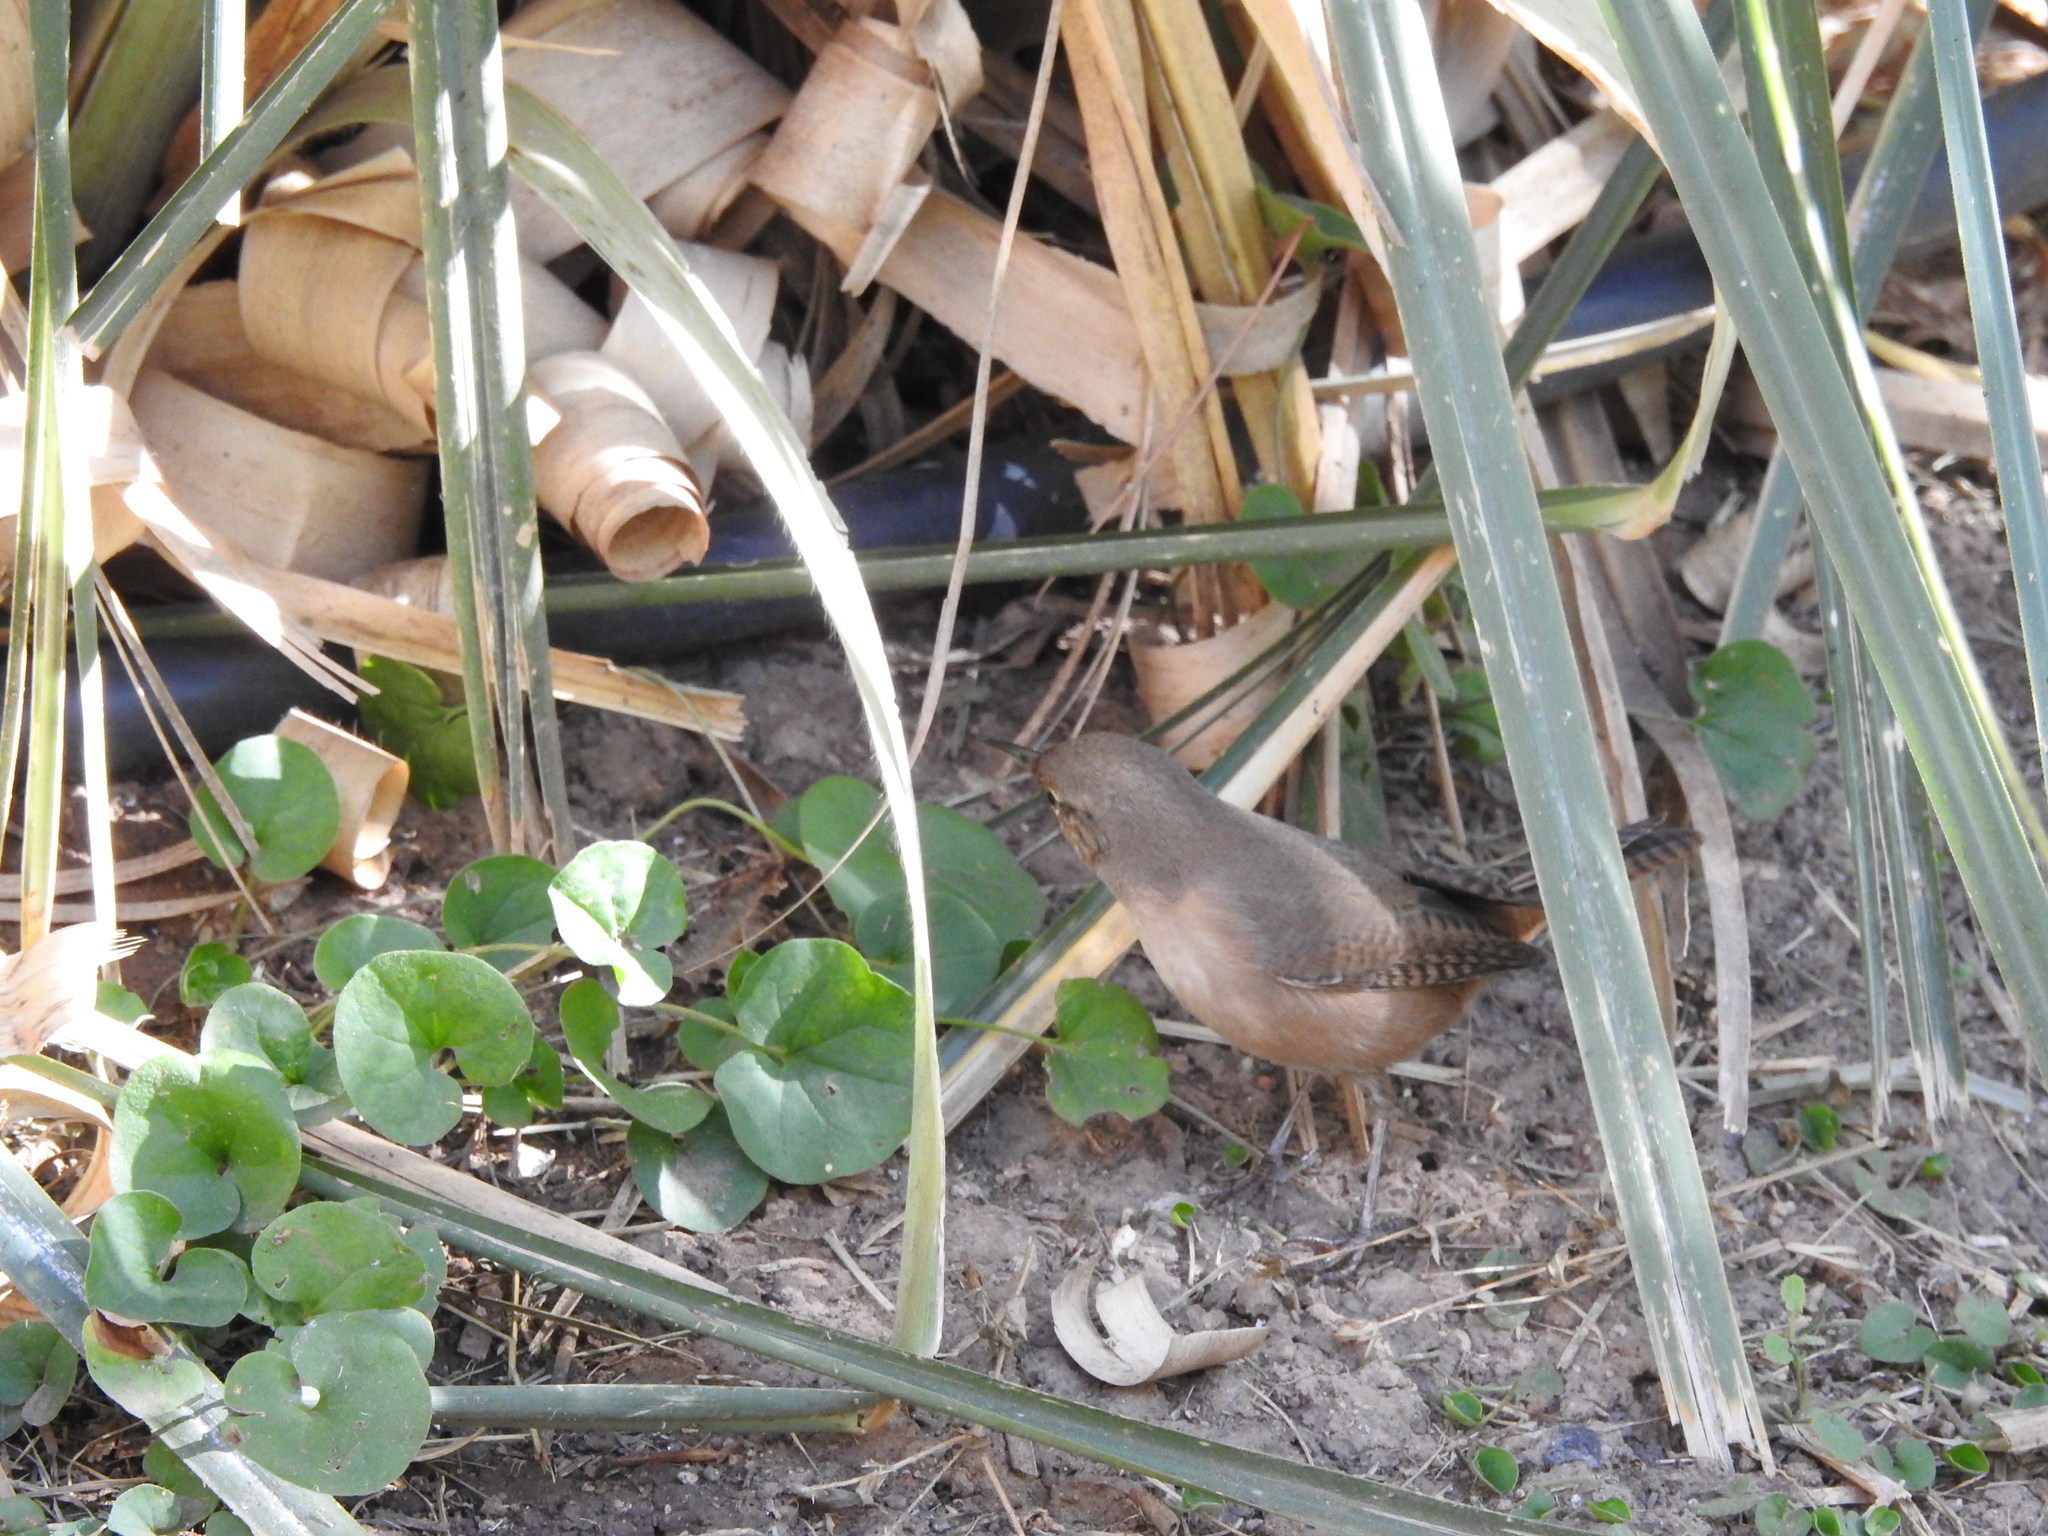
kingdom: Animalia
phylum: Chordata
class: Aves
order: Passeriformes
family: Troglodytidae
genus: Troglodytes
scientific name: Troglodytes aedon
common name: House wren
